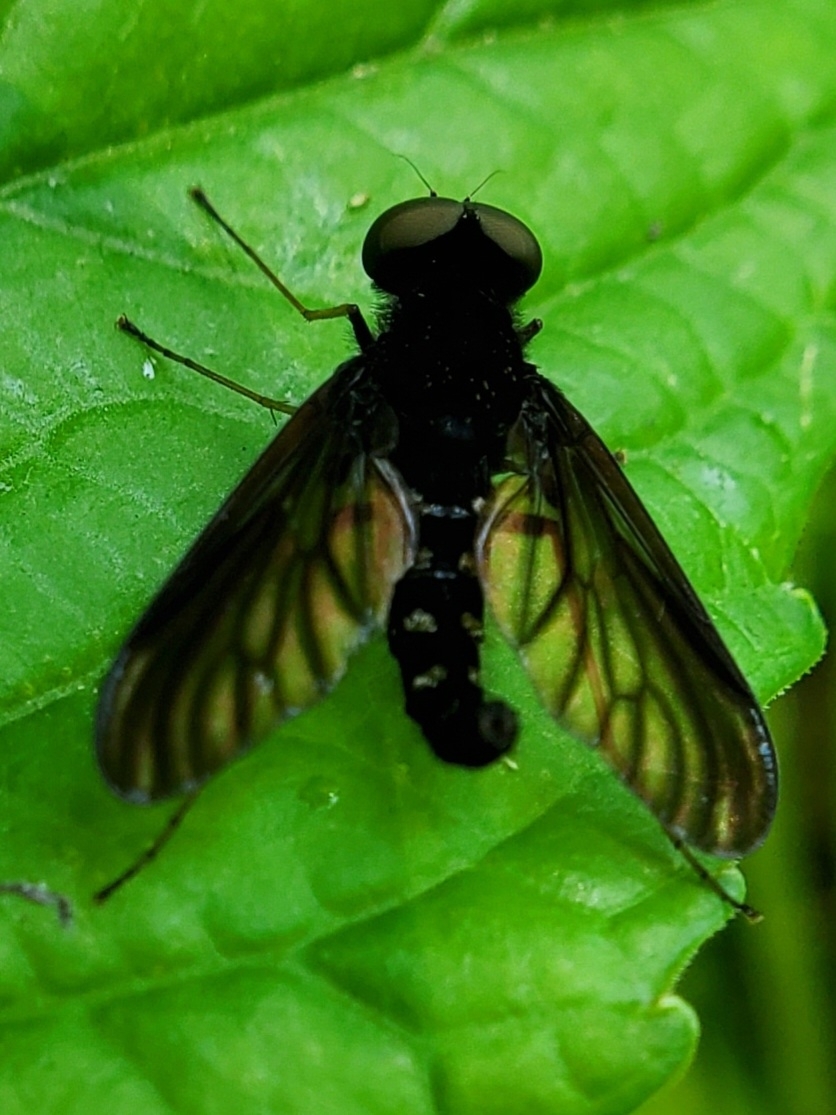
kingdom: Animalia
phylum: Arthropoda
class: Insecta
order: Diptera
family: Rhagionidae
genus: Chrysopilus
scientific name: Chrysopilus connexus
